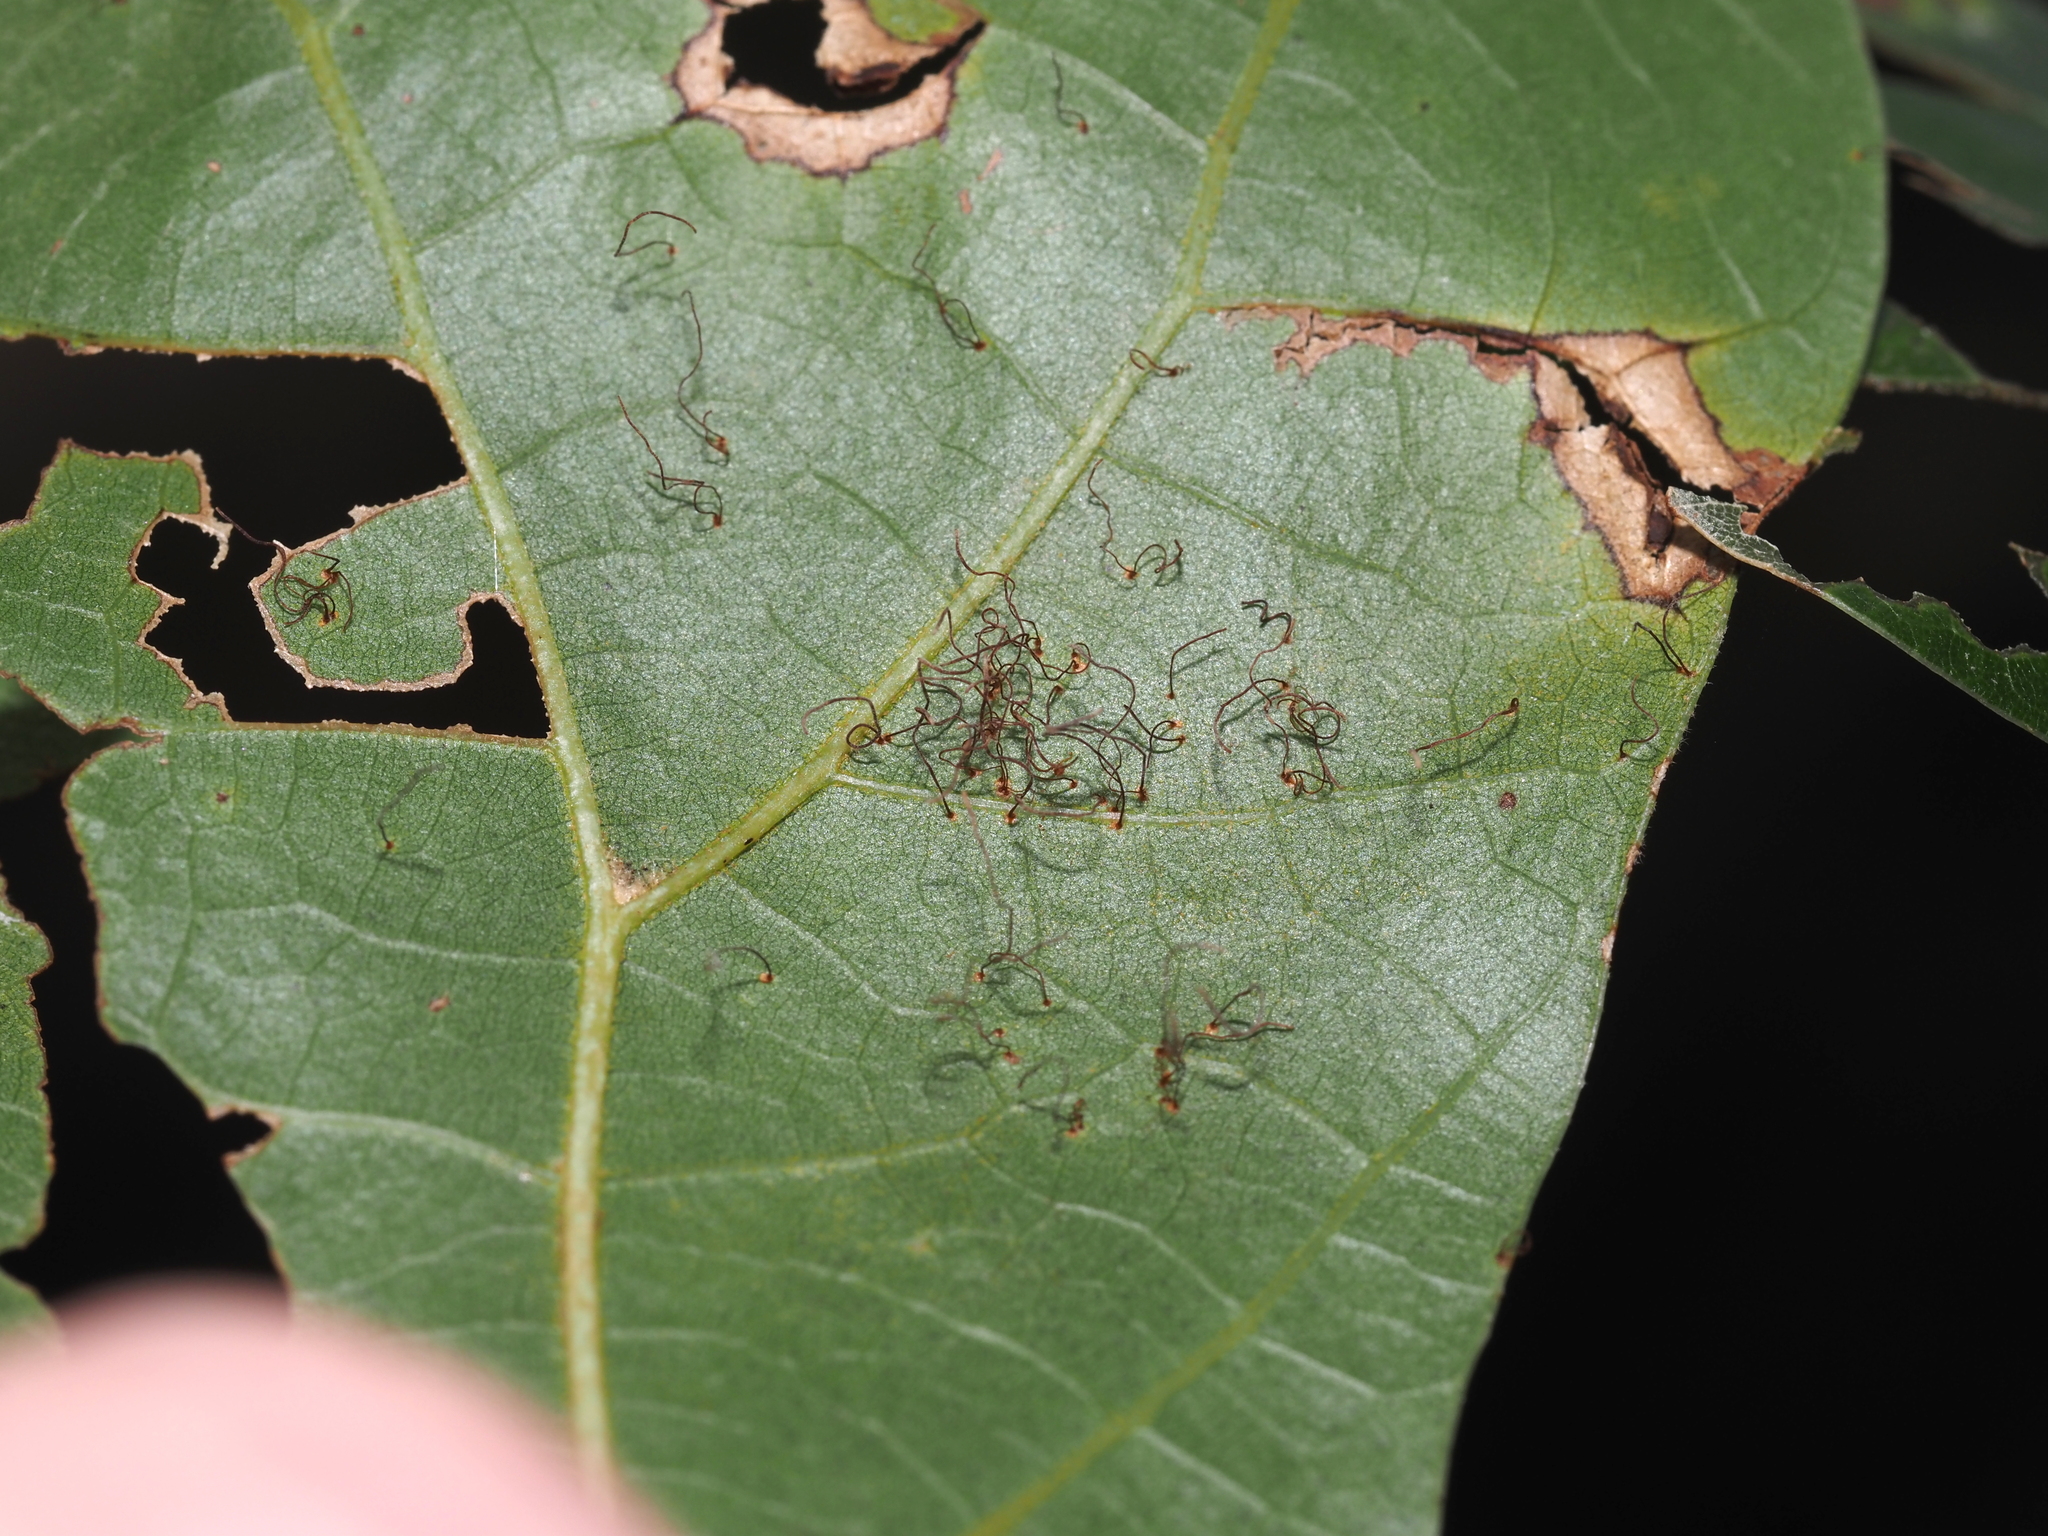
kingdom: Fungi
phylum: Basidiomycota
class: Pucciniomycetes
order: Pucciniales
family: Cronartiaceae
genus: Cronartium
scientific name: Cronartium quercuum
